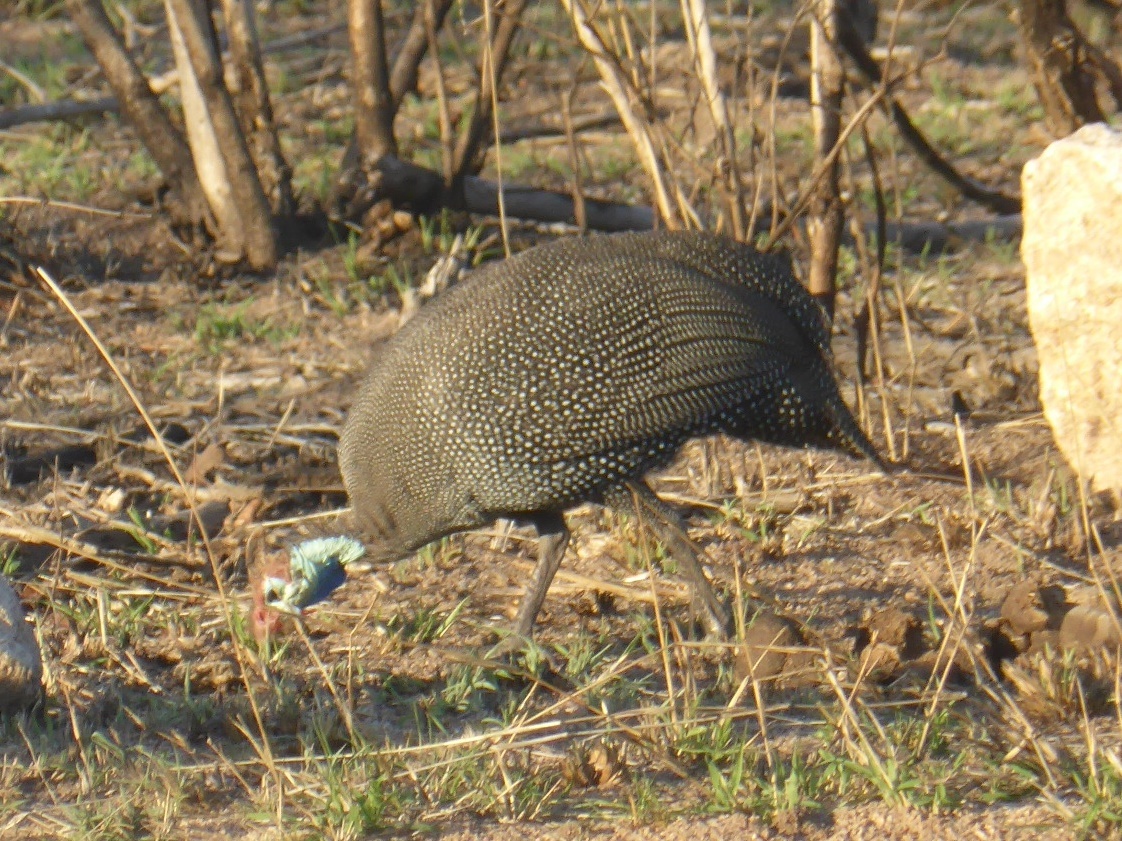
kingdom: Animalia
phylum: Chordata
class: Aves
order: Galliformes
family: Numididae
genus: Numida
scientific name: Numida meleagris
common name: Helmeted guineafowl
